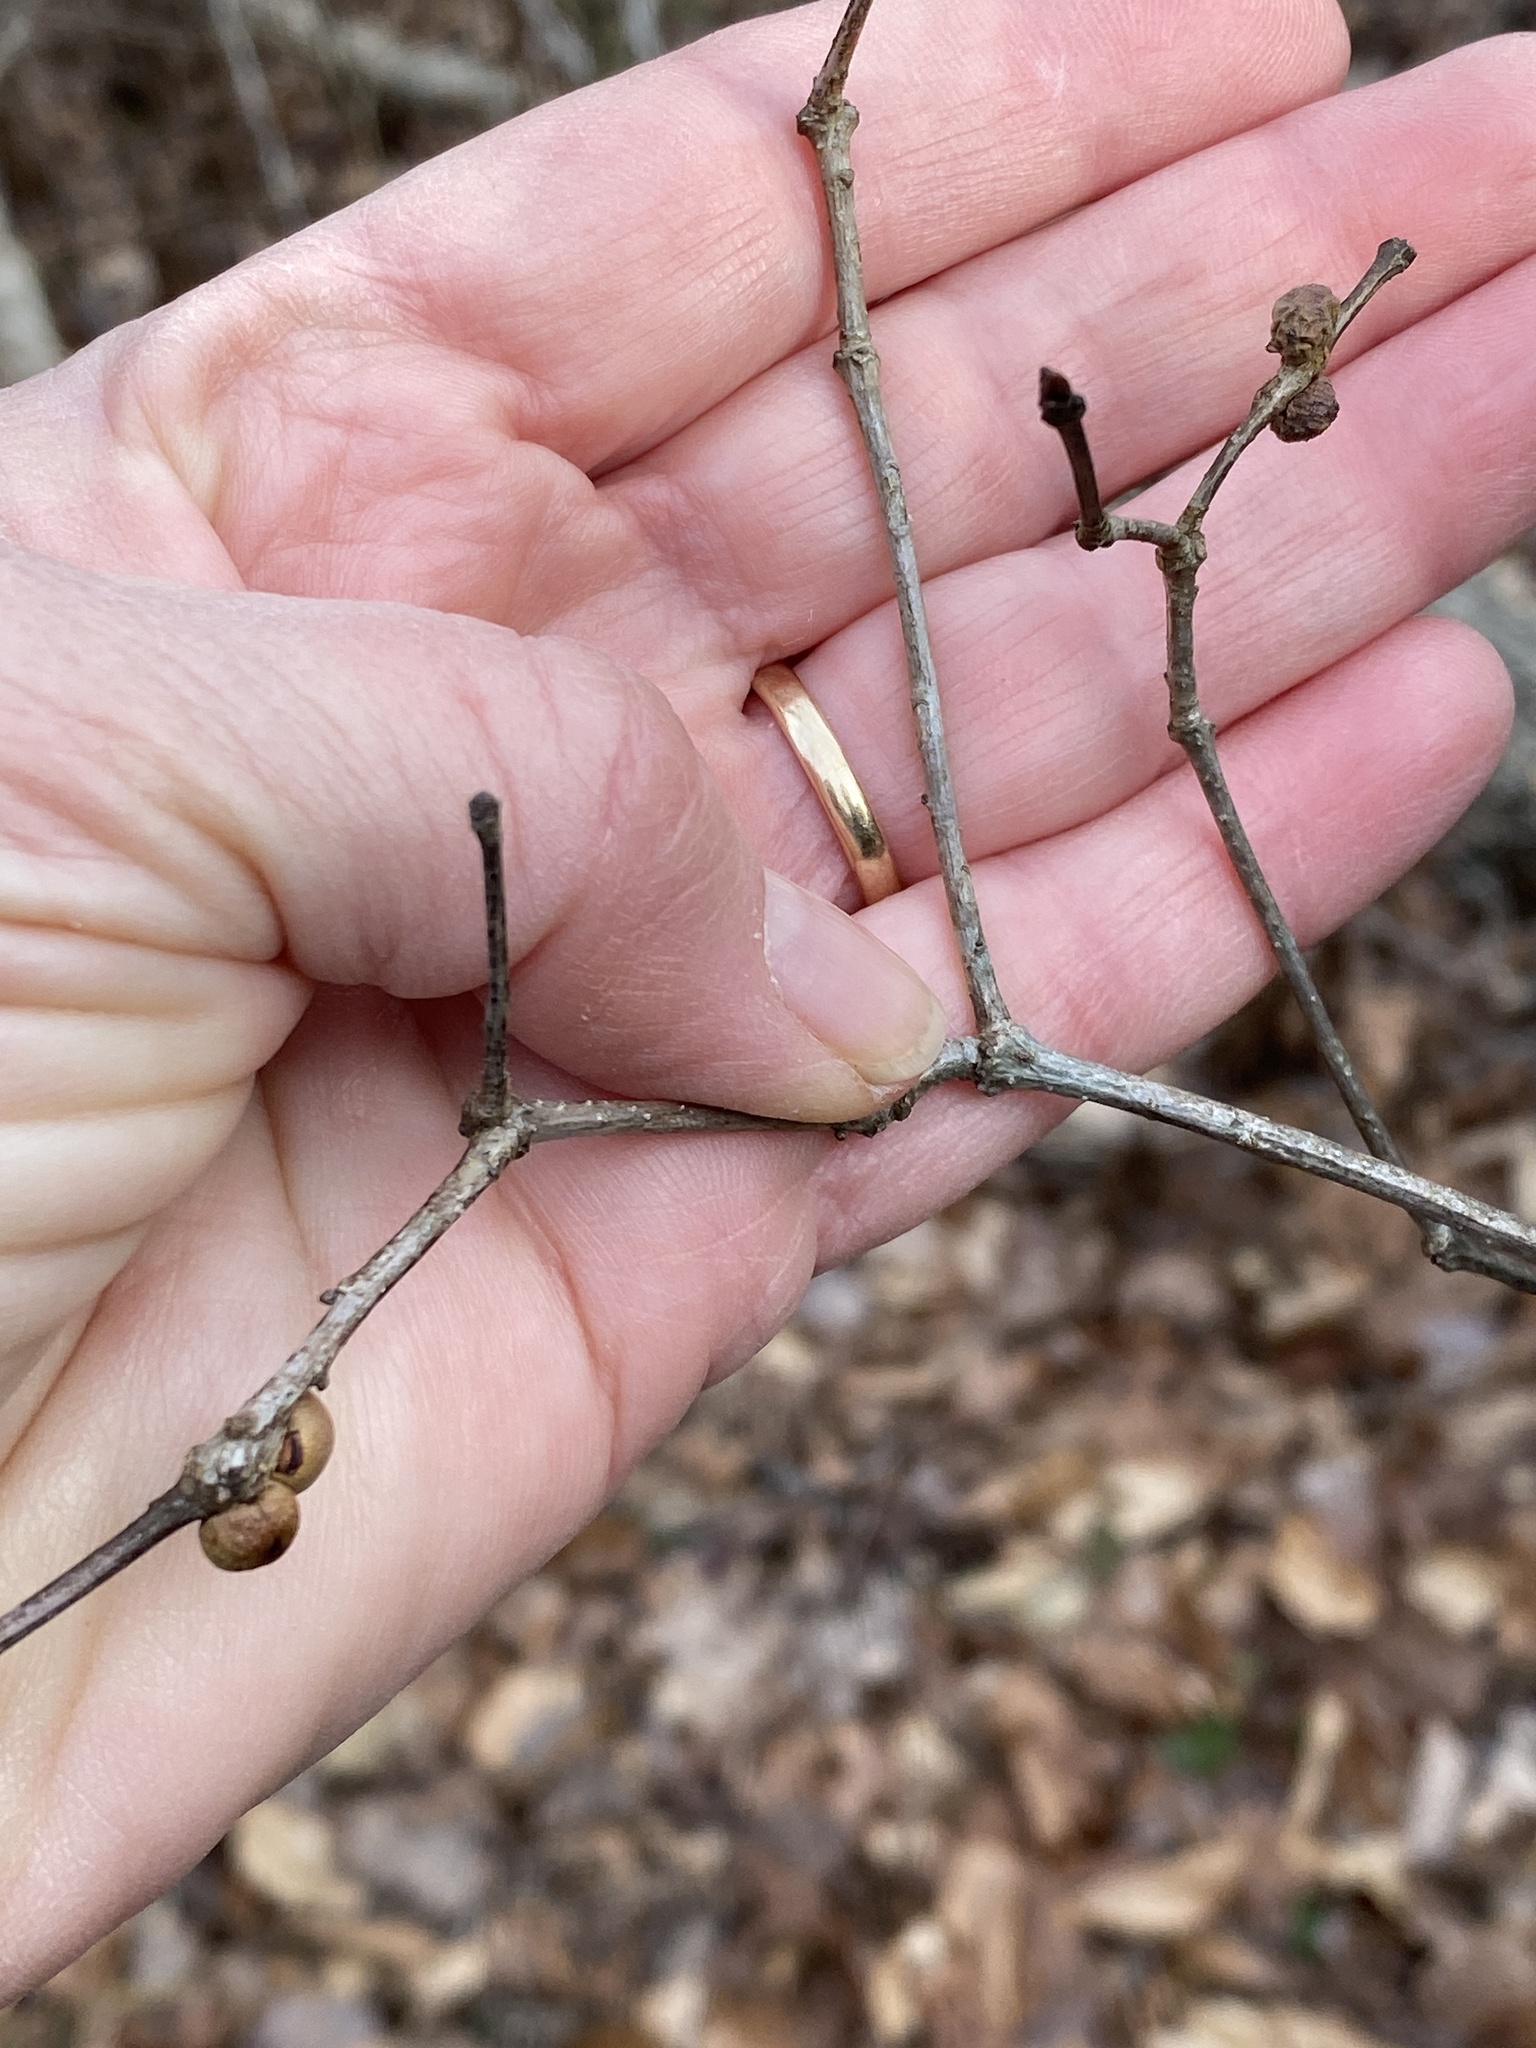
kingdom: Animalia
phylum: Arthropoda
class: Insecta
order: Hymenoptera
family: Cynipidae
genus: Disholcaspis
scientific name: Disholcaspis quercusglobulus
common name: Round bullet gall wasp
